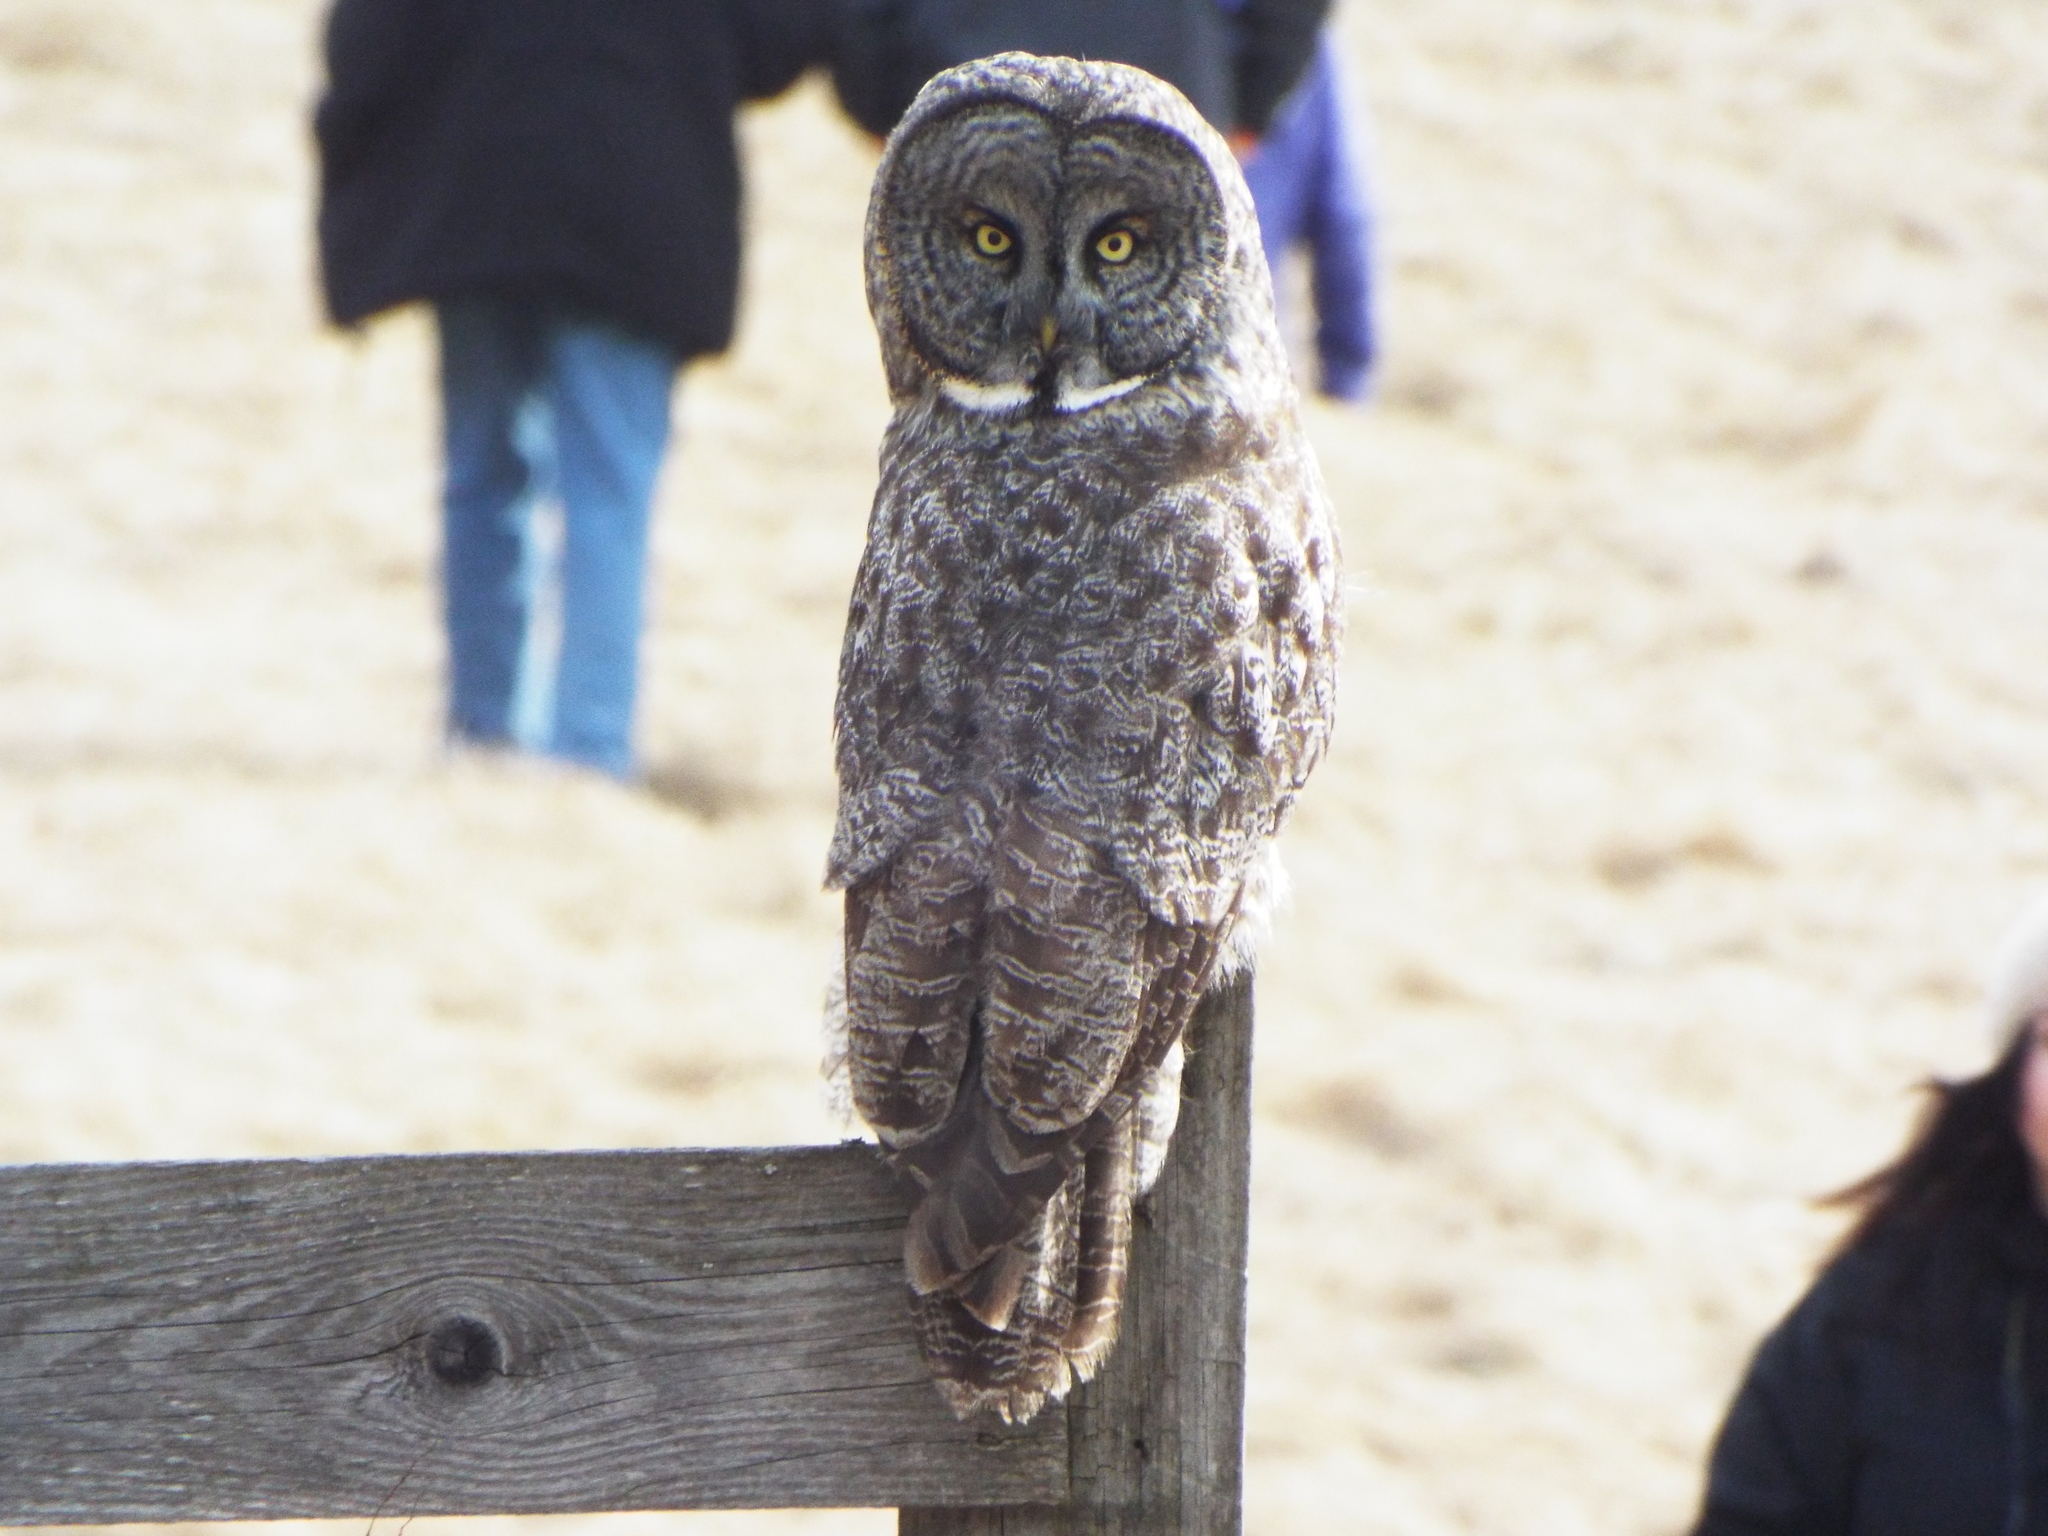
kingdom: Animalia
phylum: Chordata
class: Aves
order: Strigiformes
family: Strigidae
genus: Strix
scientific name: Strix nebulosa
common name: Great grey owl
